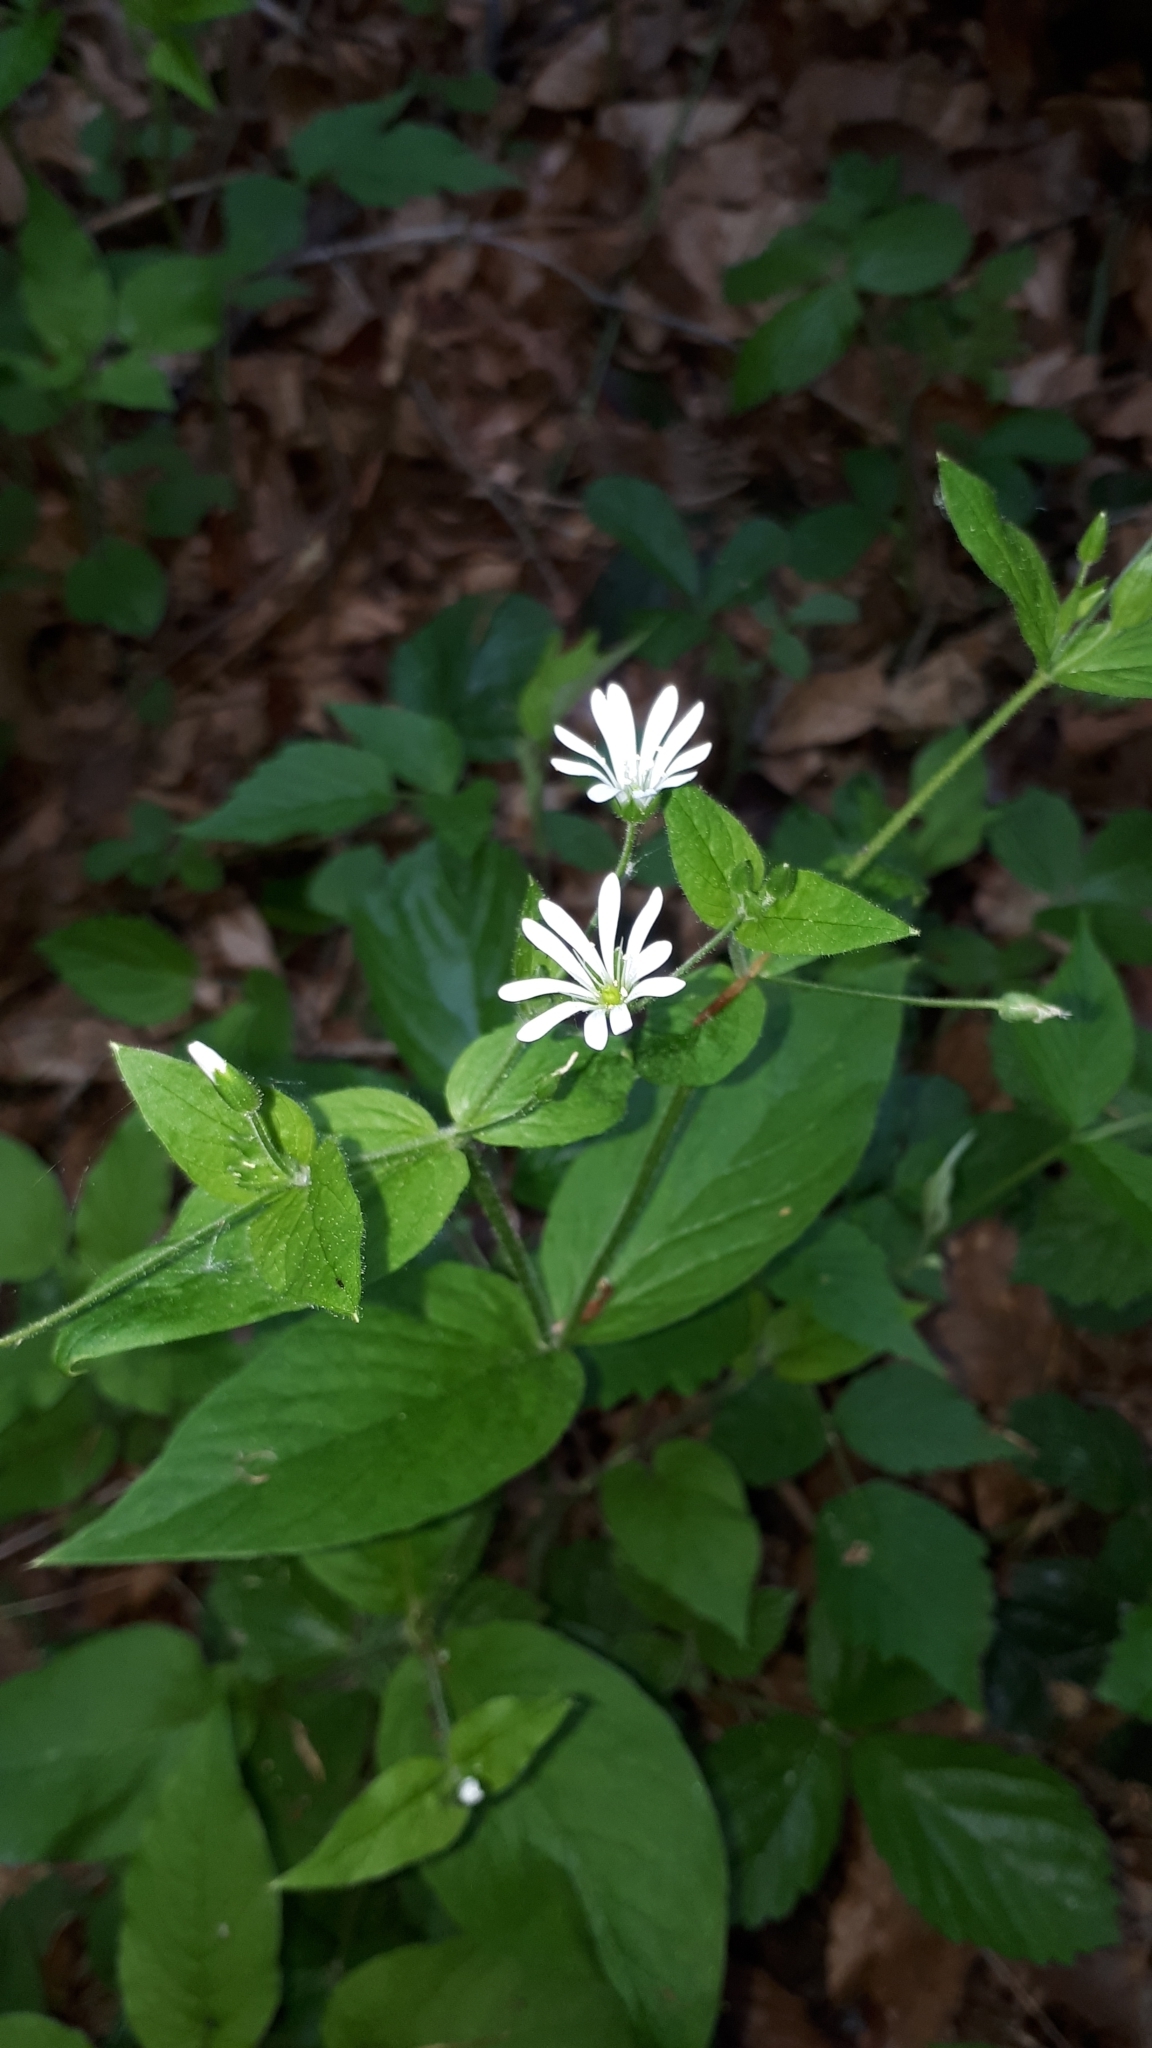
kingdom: Plantae
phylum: Tracheophyta
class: Magnoliopsida
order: Caryophyllales
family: Caryophyllaceae
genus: Stellaria
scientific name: Stellaria nemorum
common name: Wood stitchwort
